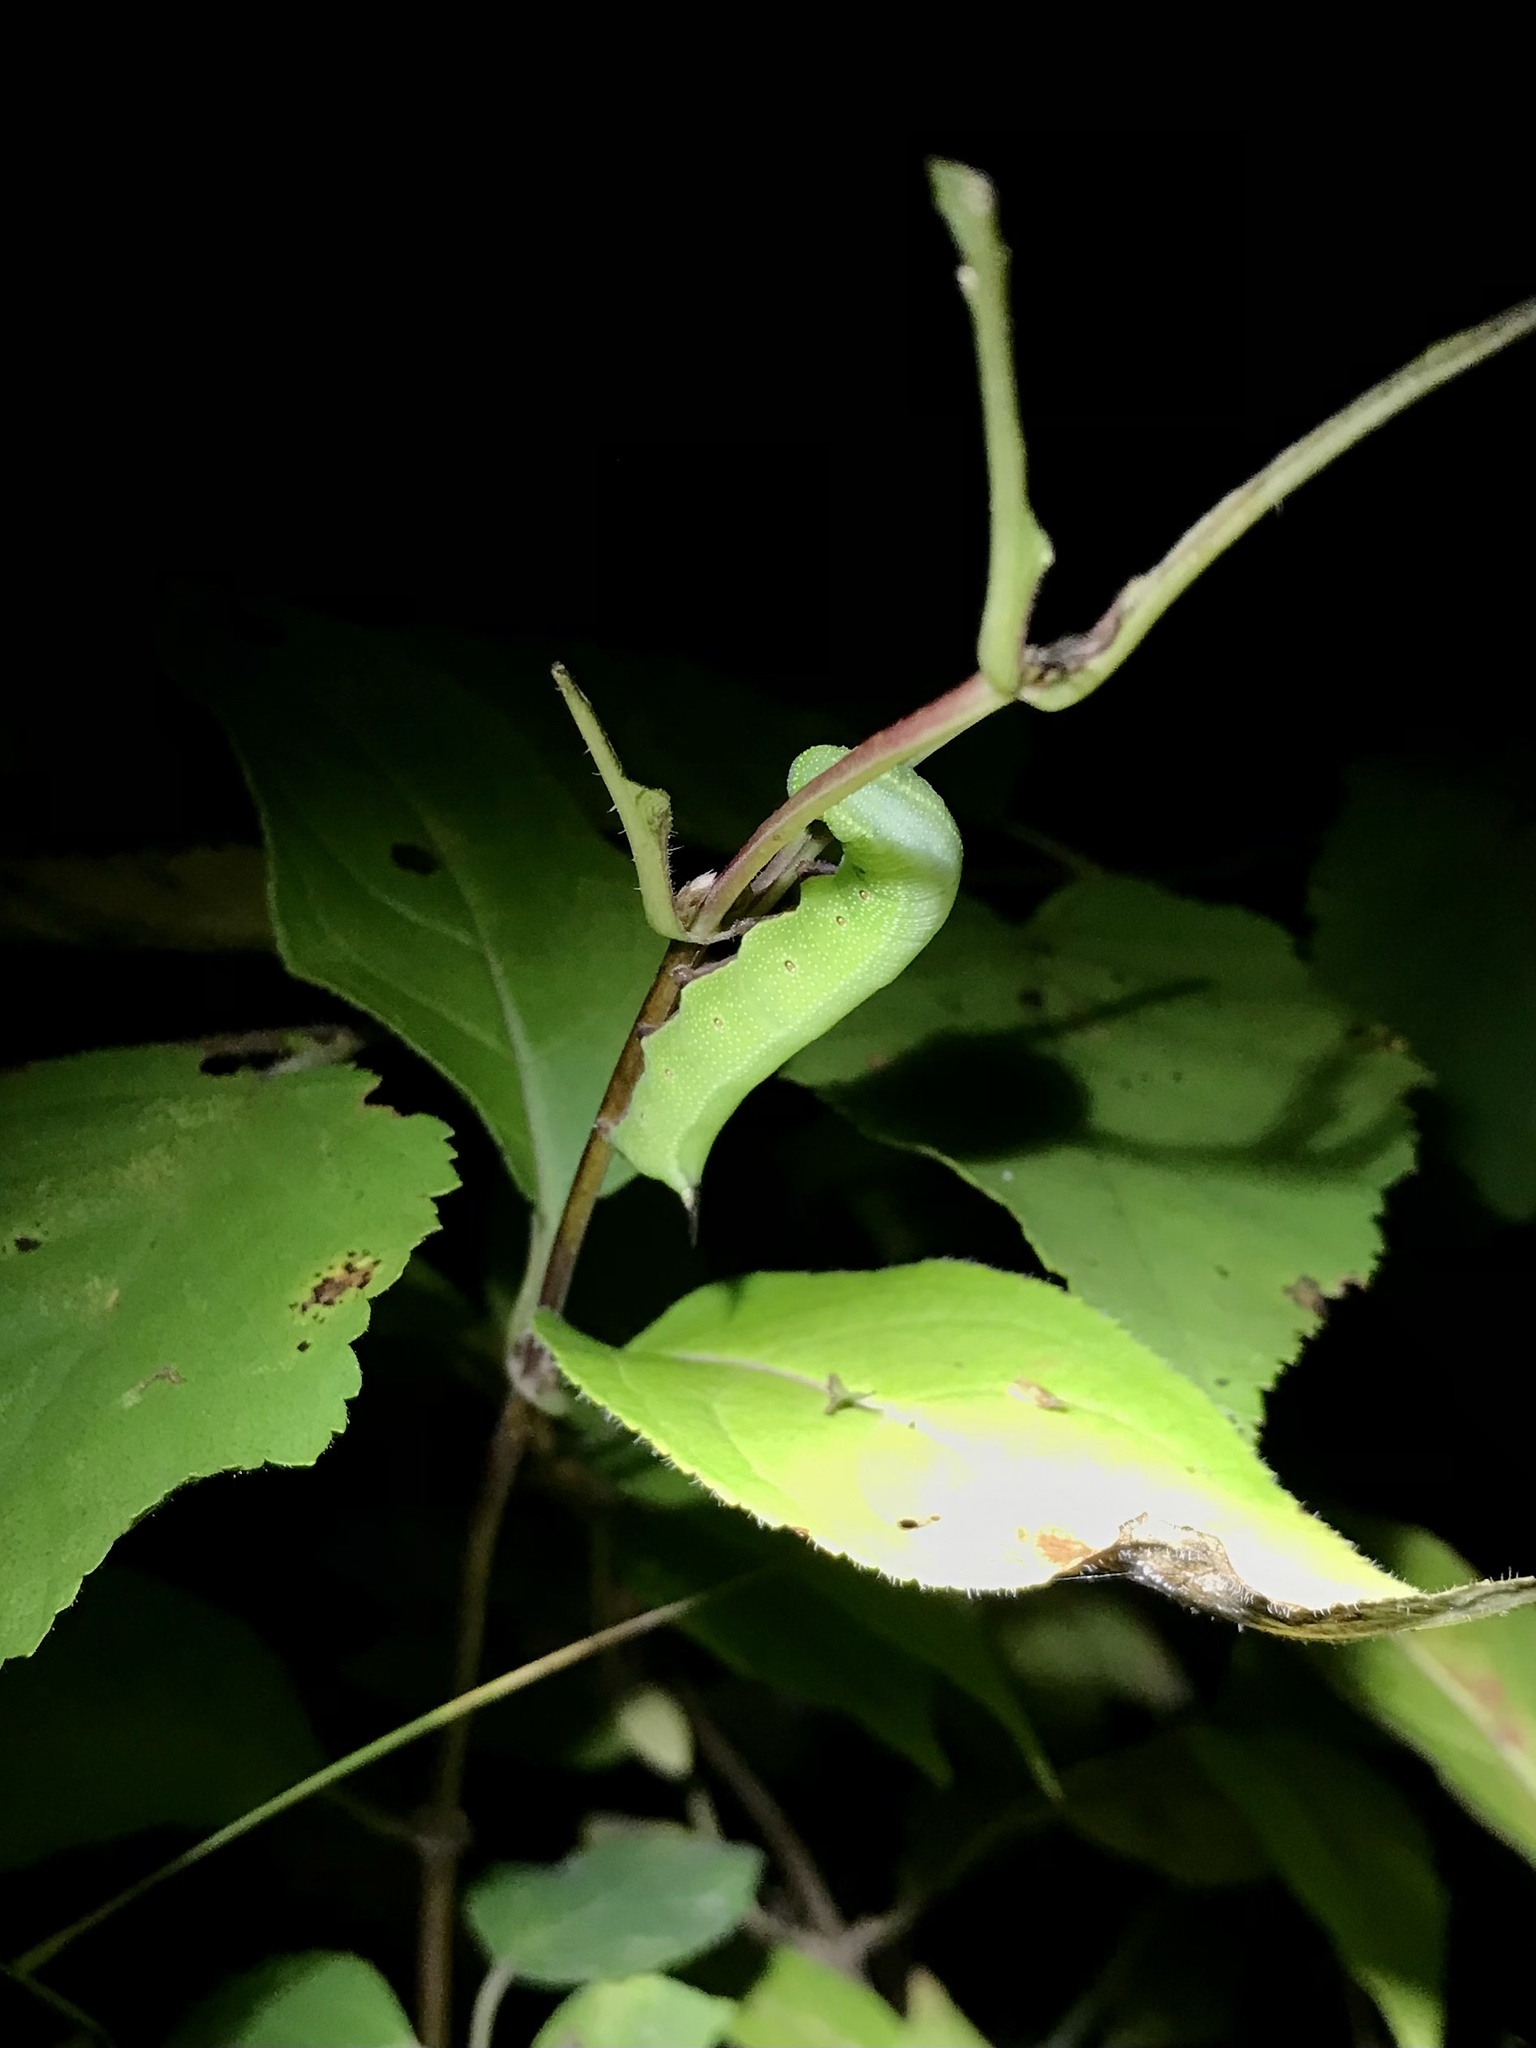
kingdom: Animalia
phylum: Arthropoda
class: Insecta
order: Lepidoptera
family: Sphingidae
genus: Hemaris
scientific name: Hemaris diffinis
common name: Bumblebee moth
